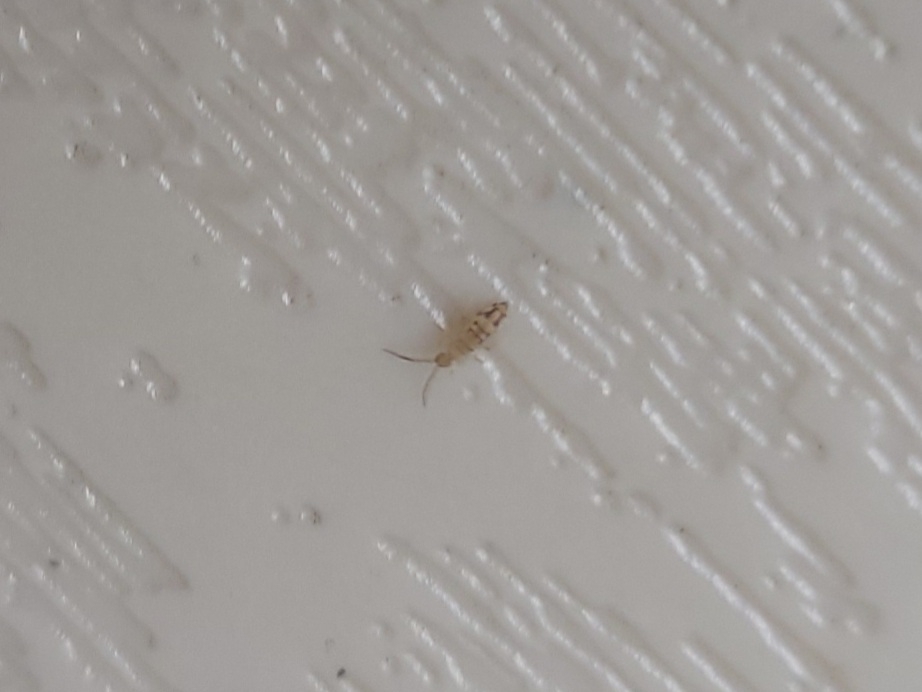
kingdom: Animalia
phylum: Arthropoda
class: Collembola
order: Entomobryomorpha
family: Entomobryidae
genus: Entomobrya
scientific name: Entomobrya nivalis
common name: Cosmopolitan springtail
